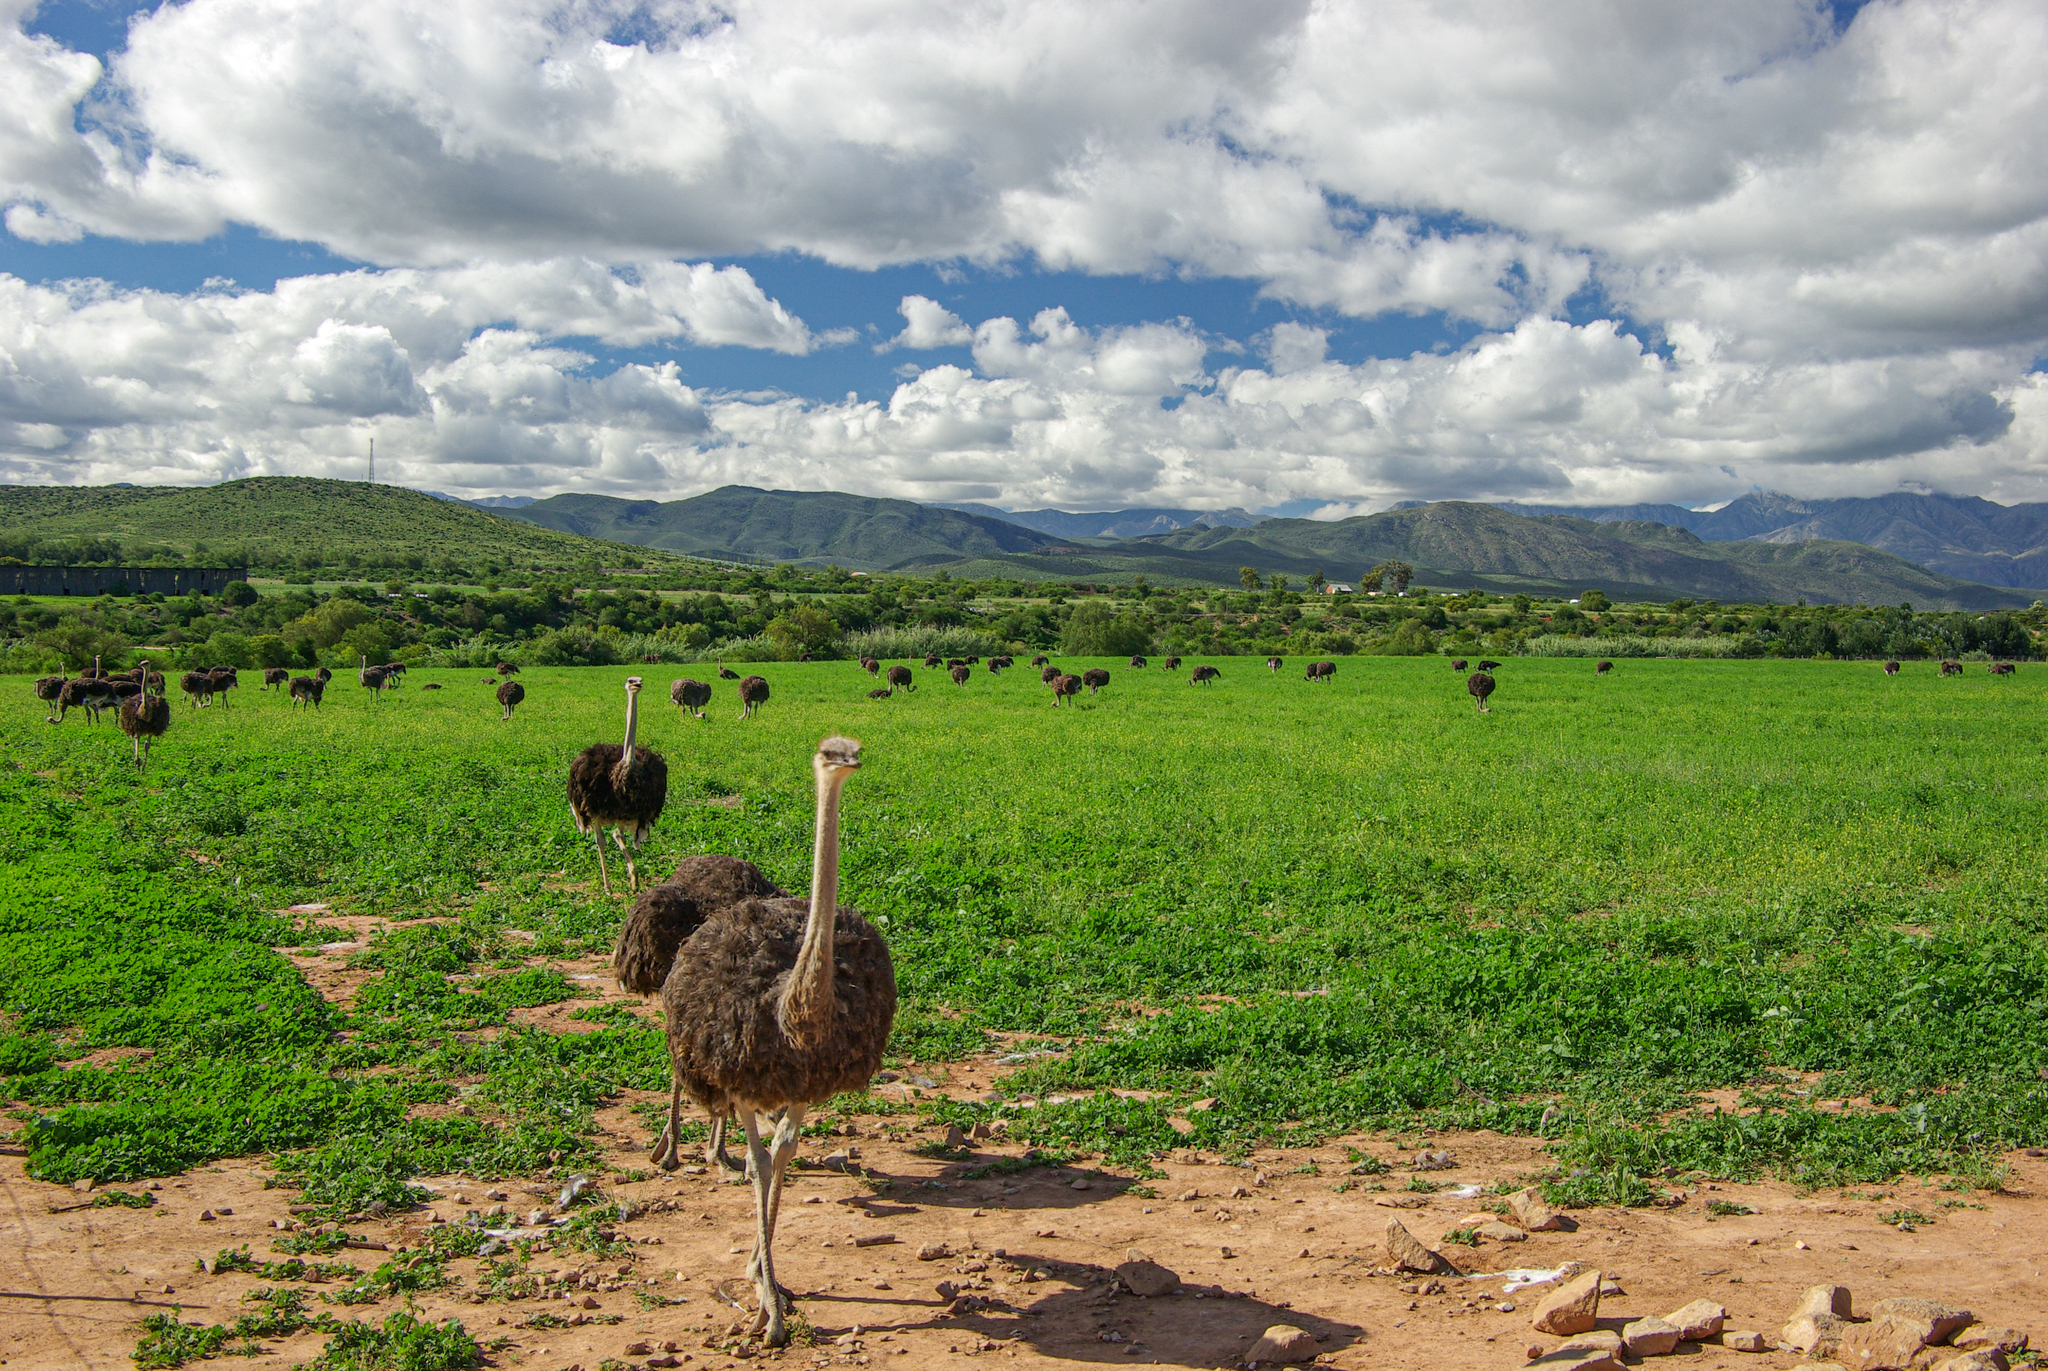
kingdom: Animalia
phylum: Chordata
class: Aves
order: Struthioniformes
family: Struthionidae
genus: Struthio
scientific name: Struthio camelus
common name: Common ostrich
